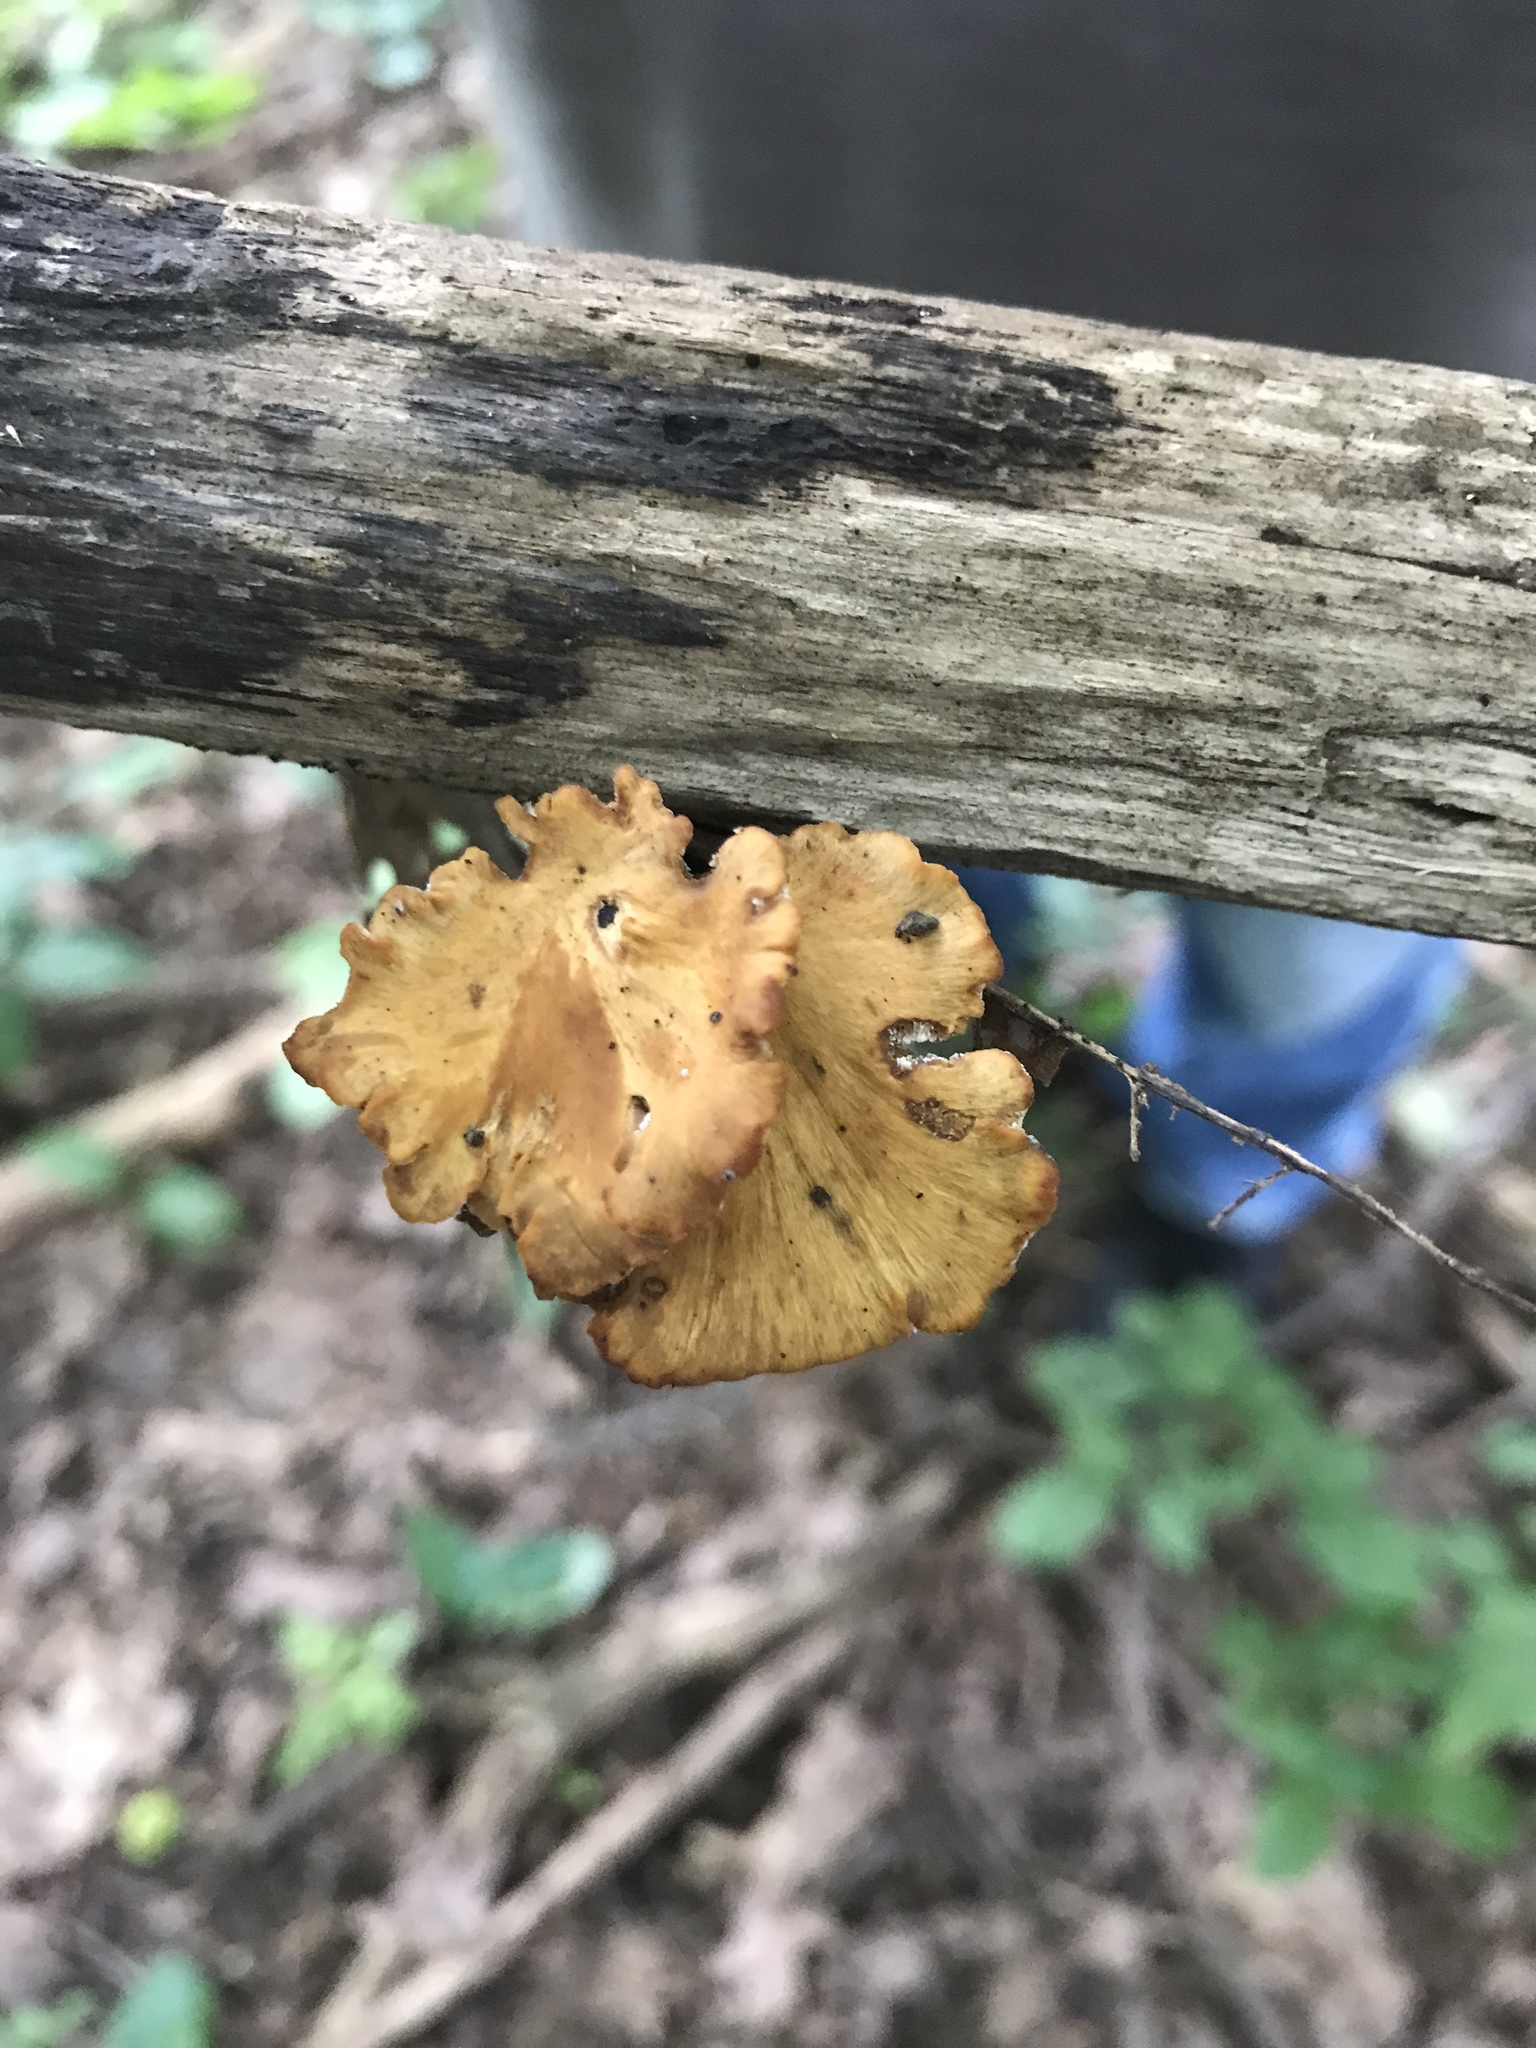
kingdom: Fungi
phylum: Basidiomycota
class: Agaricomycetes
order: Polyporales
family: Polyporaceae
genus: Cerioporus
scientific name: Cerioporus leptocephalus
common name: Blackfoot polypore
